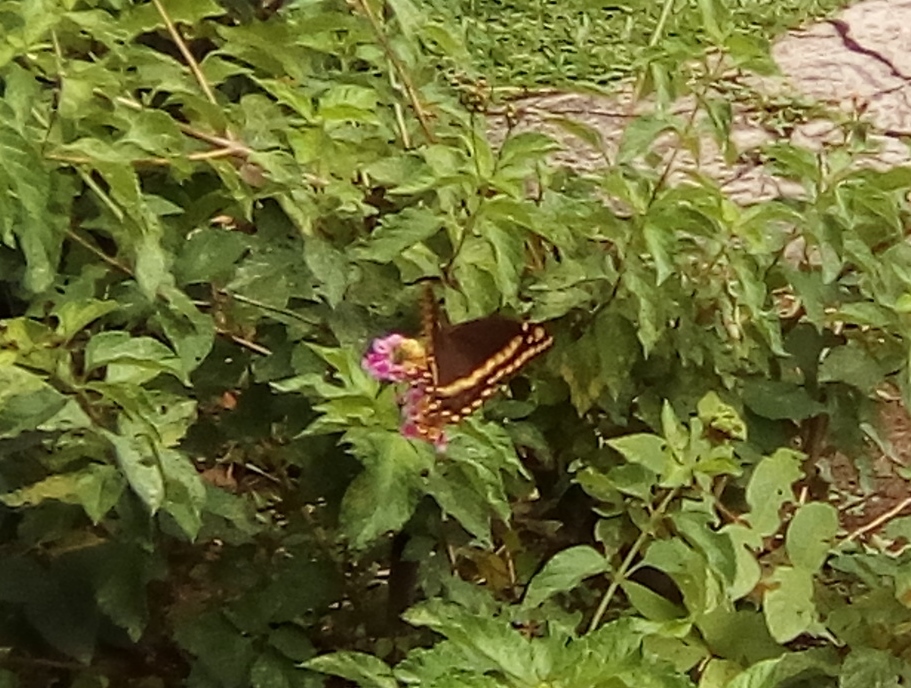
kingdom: Animalia
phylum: Arthropoda
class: Insecta
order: Lepidoptera
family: Papilionidae
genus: Papilio
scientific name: Papilio palamedes
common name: Palamedes swallowtail
